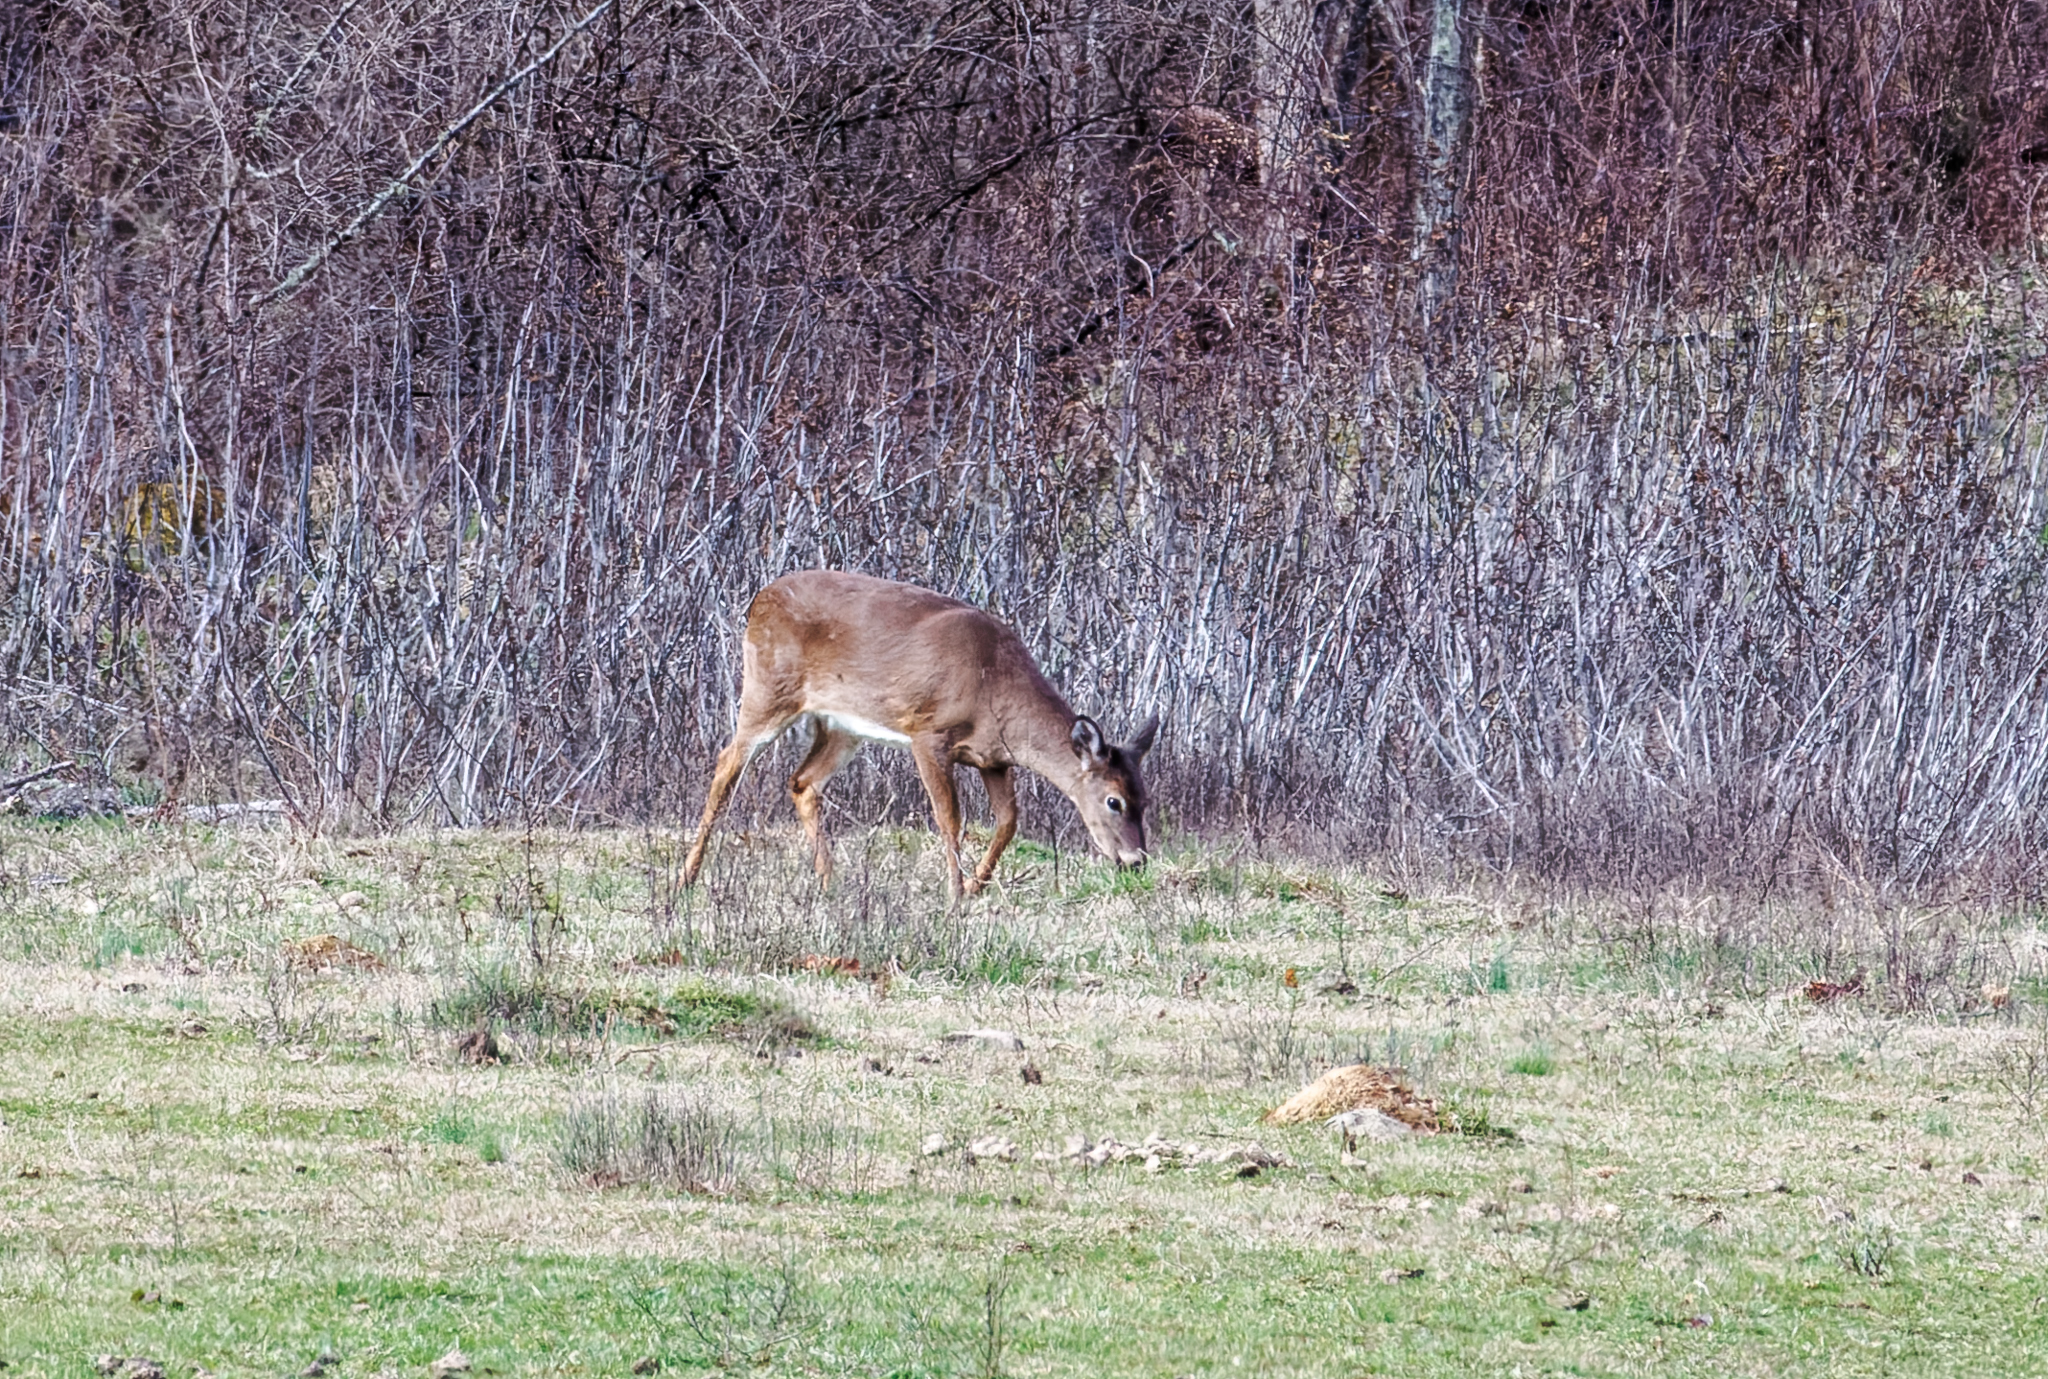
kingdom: Animalia
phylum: Chordata
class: Mammalia
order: Artiodactyla
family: Cervidae
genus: Odocoileus
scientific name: Odocoileus virginianus
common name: White-tailed deer
